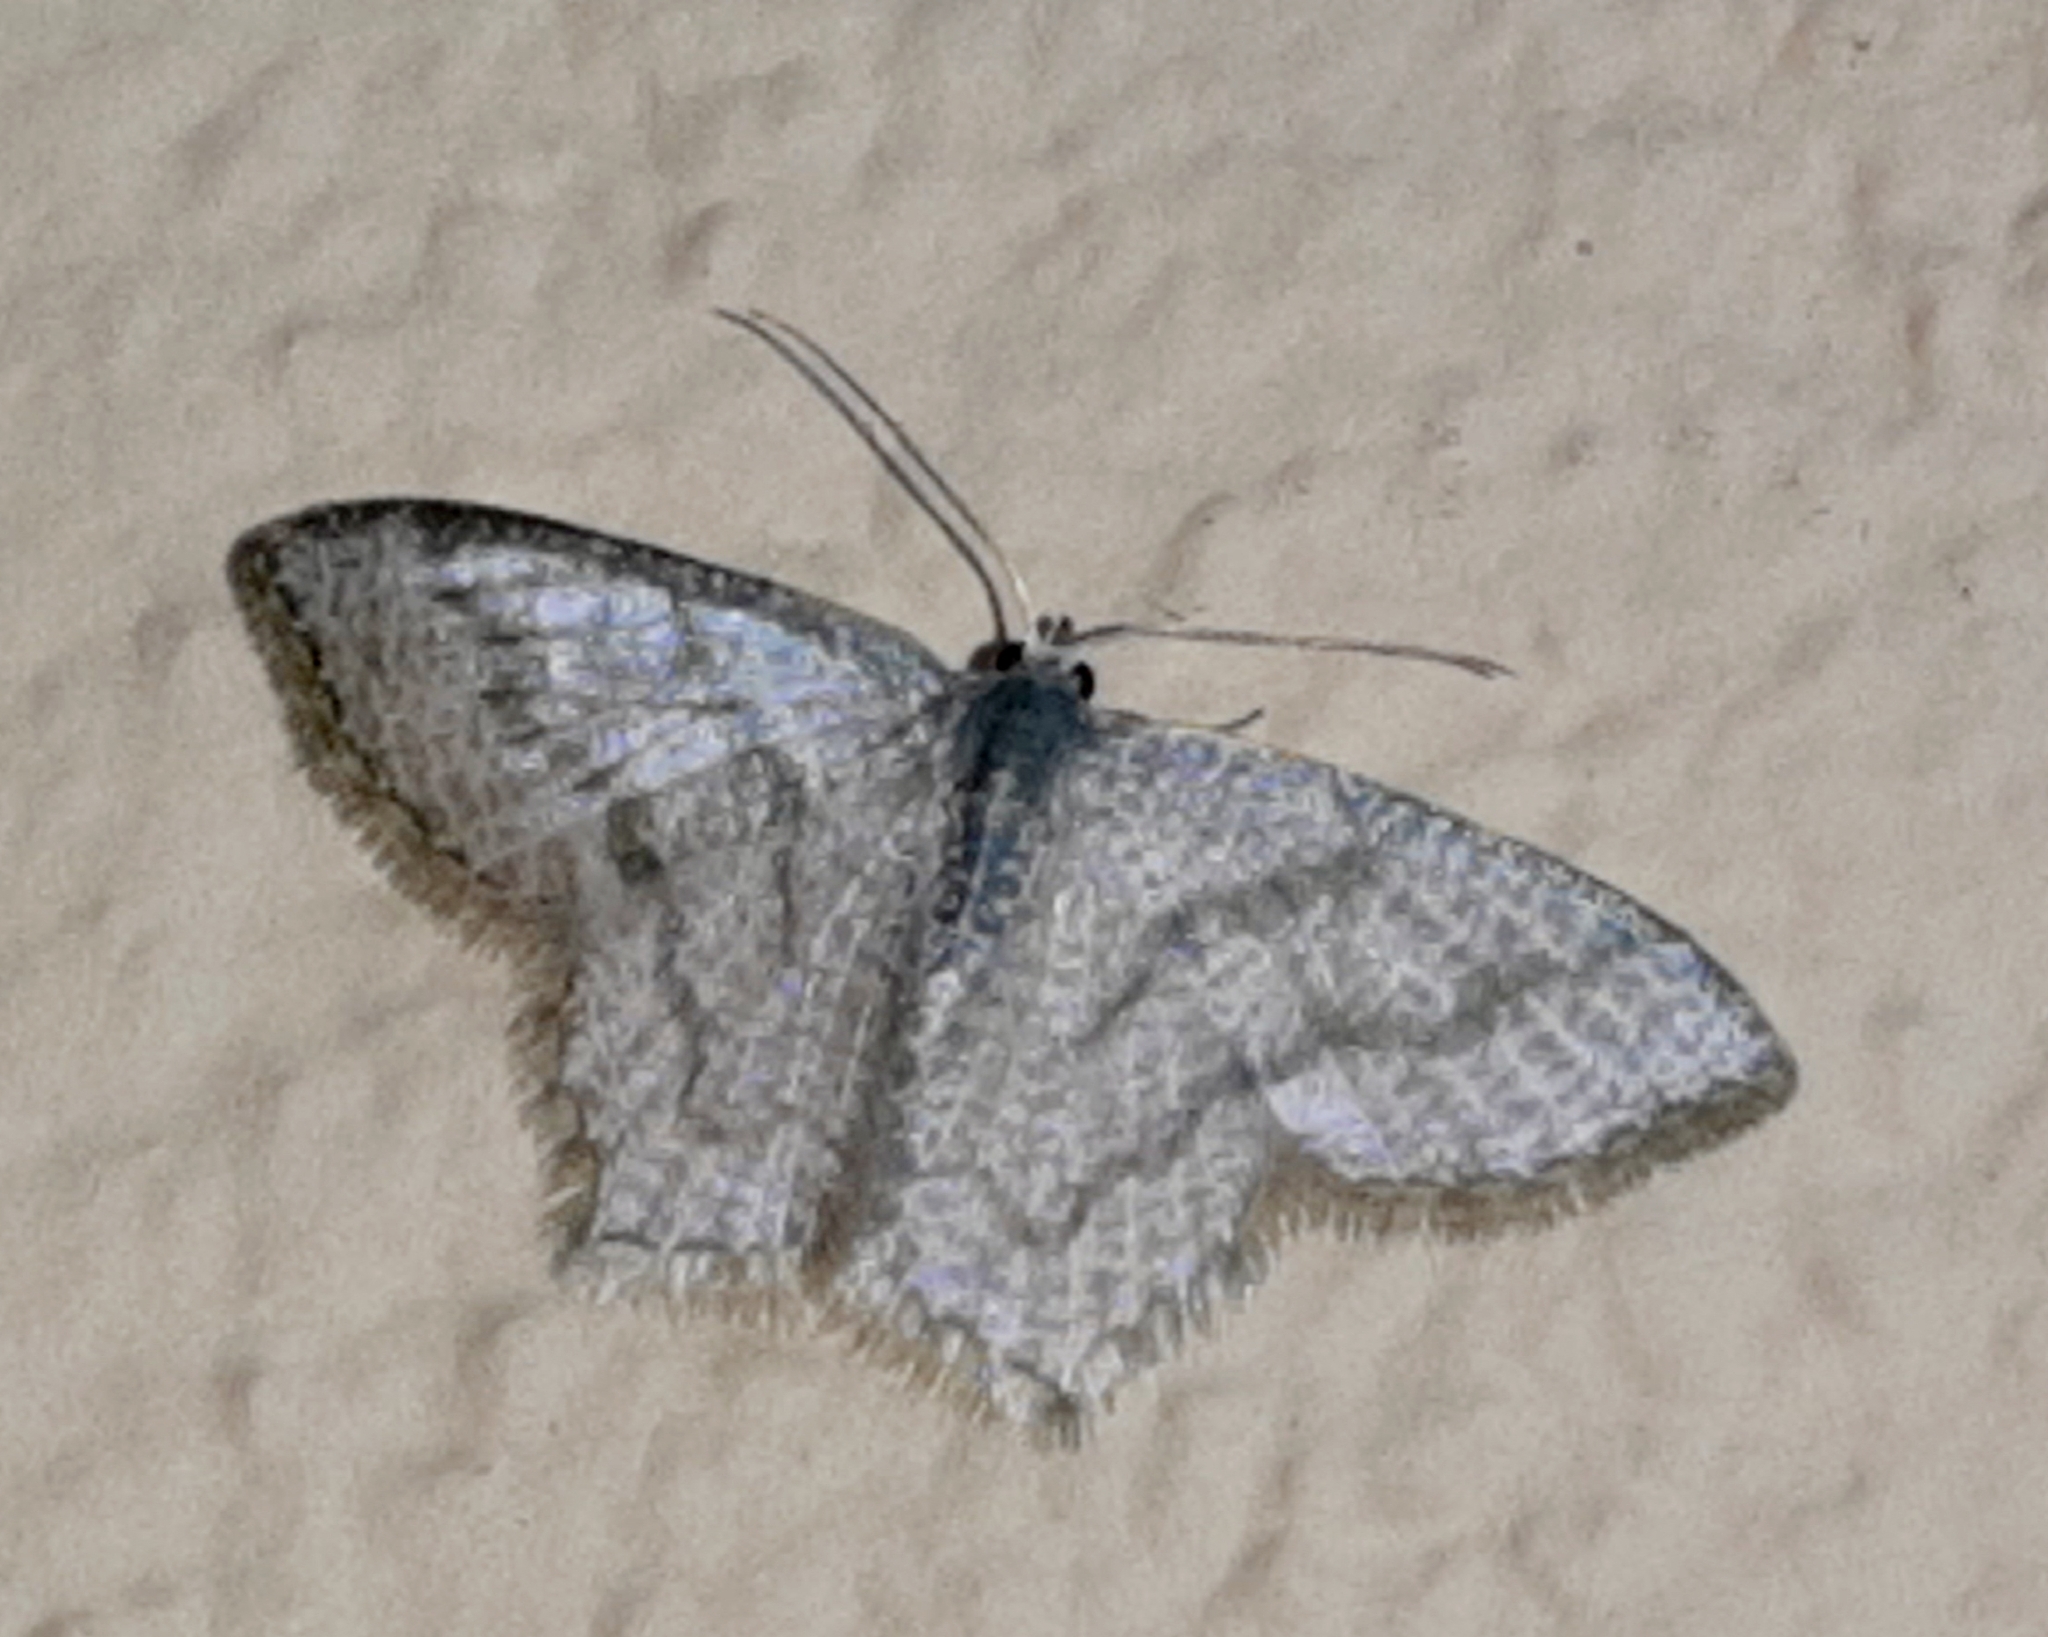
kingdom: Animalia
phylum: Arthropoda
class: Insecta
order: Lepidoptera
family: Geometridae
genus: Chloropteryx
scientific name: Chloropteryx opalaria
